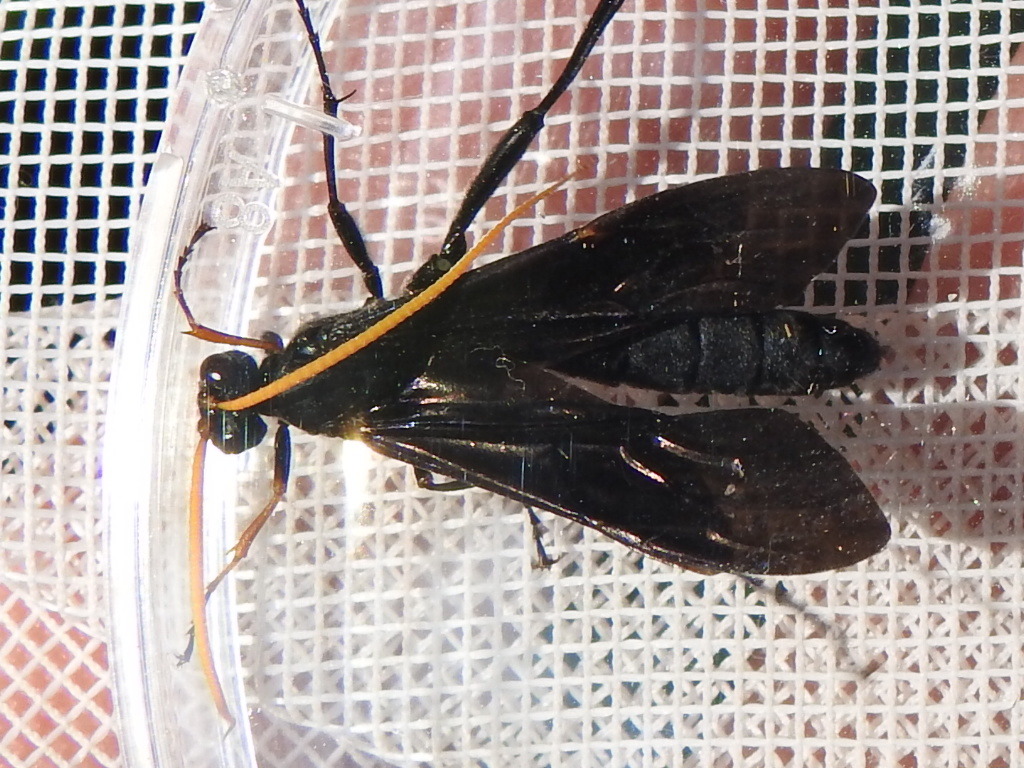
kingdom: Animalia
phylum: Arthropoda
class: Insecta
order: Hymenoptera
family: Ichneumonidae
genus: Gnamptopelta
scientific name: Gnamptopelta obsidianator
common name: Bent-shielded besieger wasp
